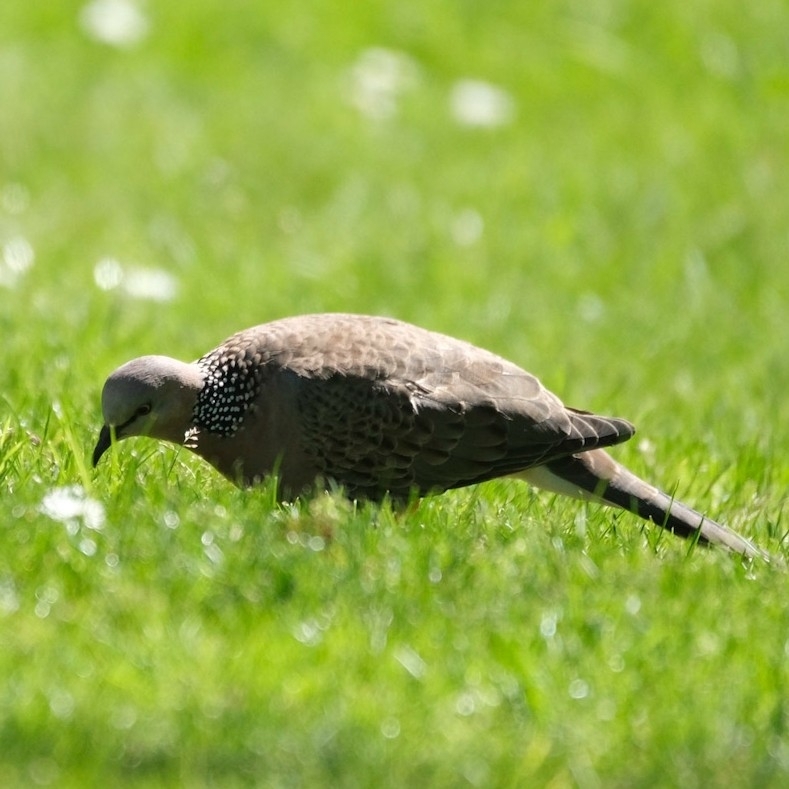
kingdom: Animalia
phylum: Chordata
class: Aves
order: Columbiformes
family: Columbidae
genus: Spilopelia
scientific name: Spilopelia chinensis
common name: Spotted dove
